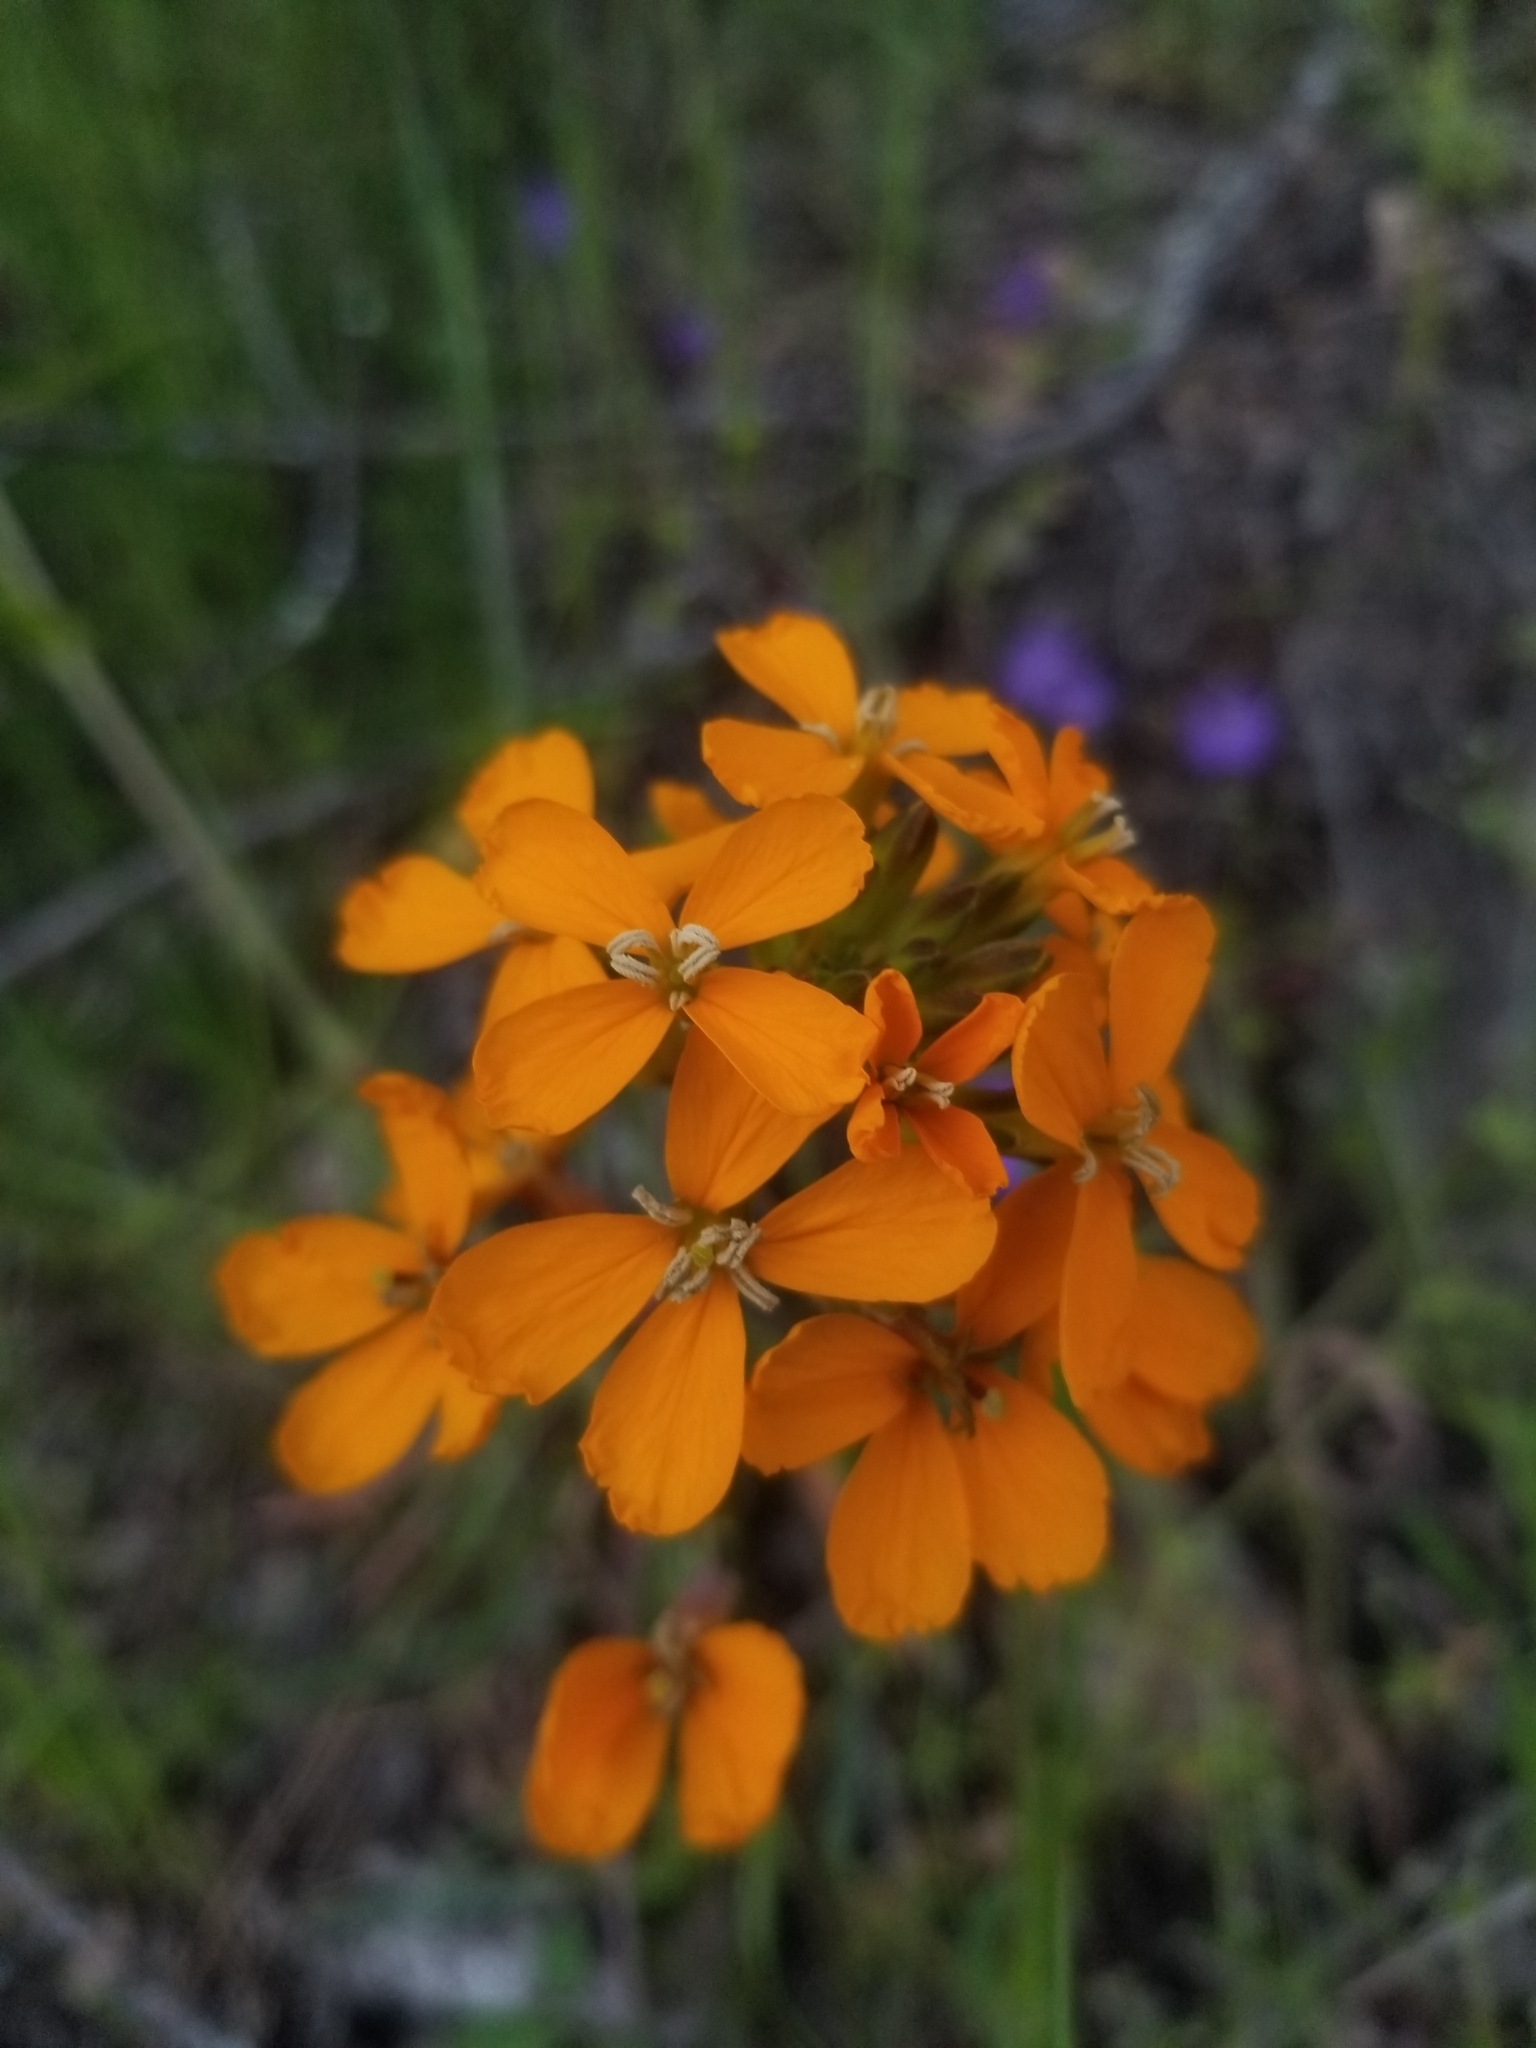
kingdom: Plantae
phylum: Tracheophyta
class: Magnoliopsida
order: Brassicales
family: Brassicaceae
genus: Erysimum
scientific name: Erysimum capitatum
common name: Western wallflower
